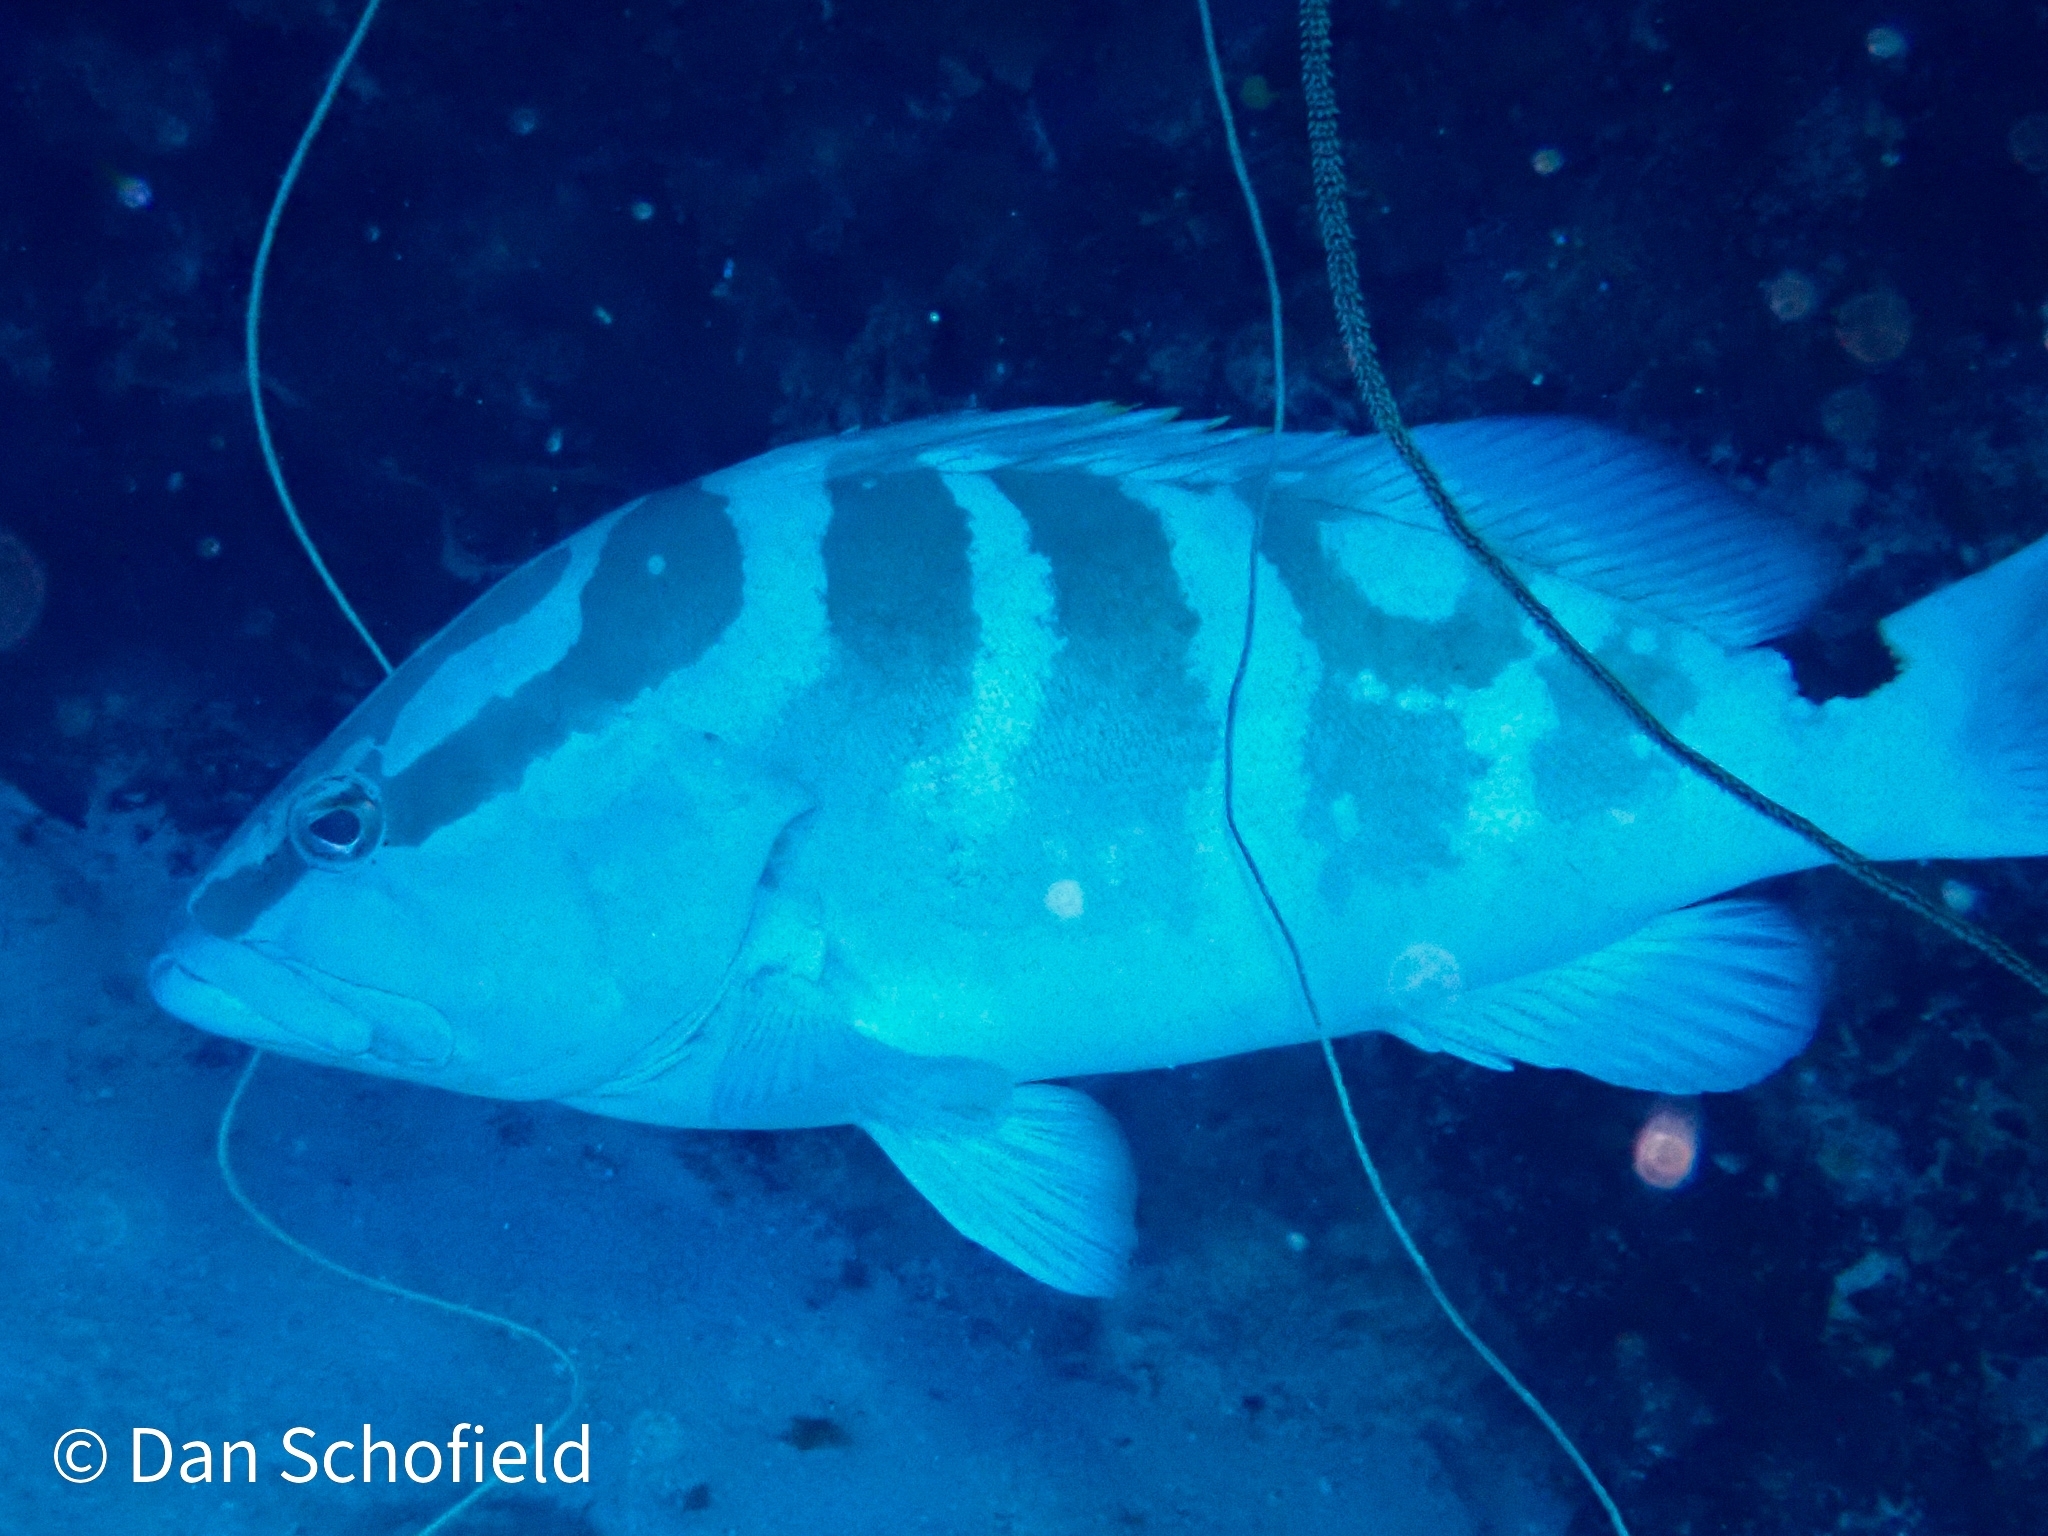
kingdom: Animalia
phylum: Chordata
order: Perciformes
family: Serranidae
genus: Epinephelus
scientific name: Epinephelus striatus
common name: Nassau grouper
